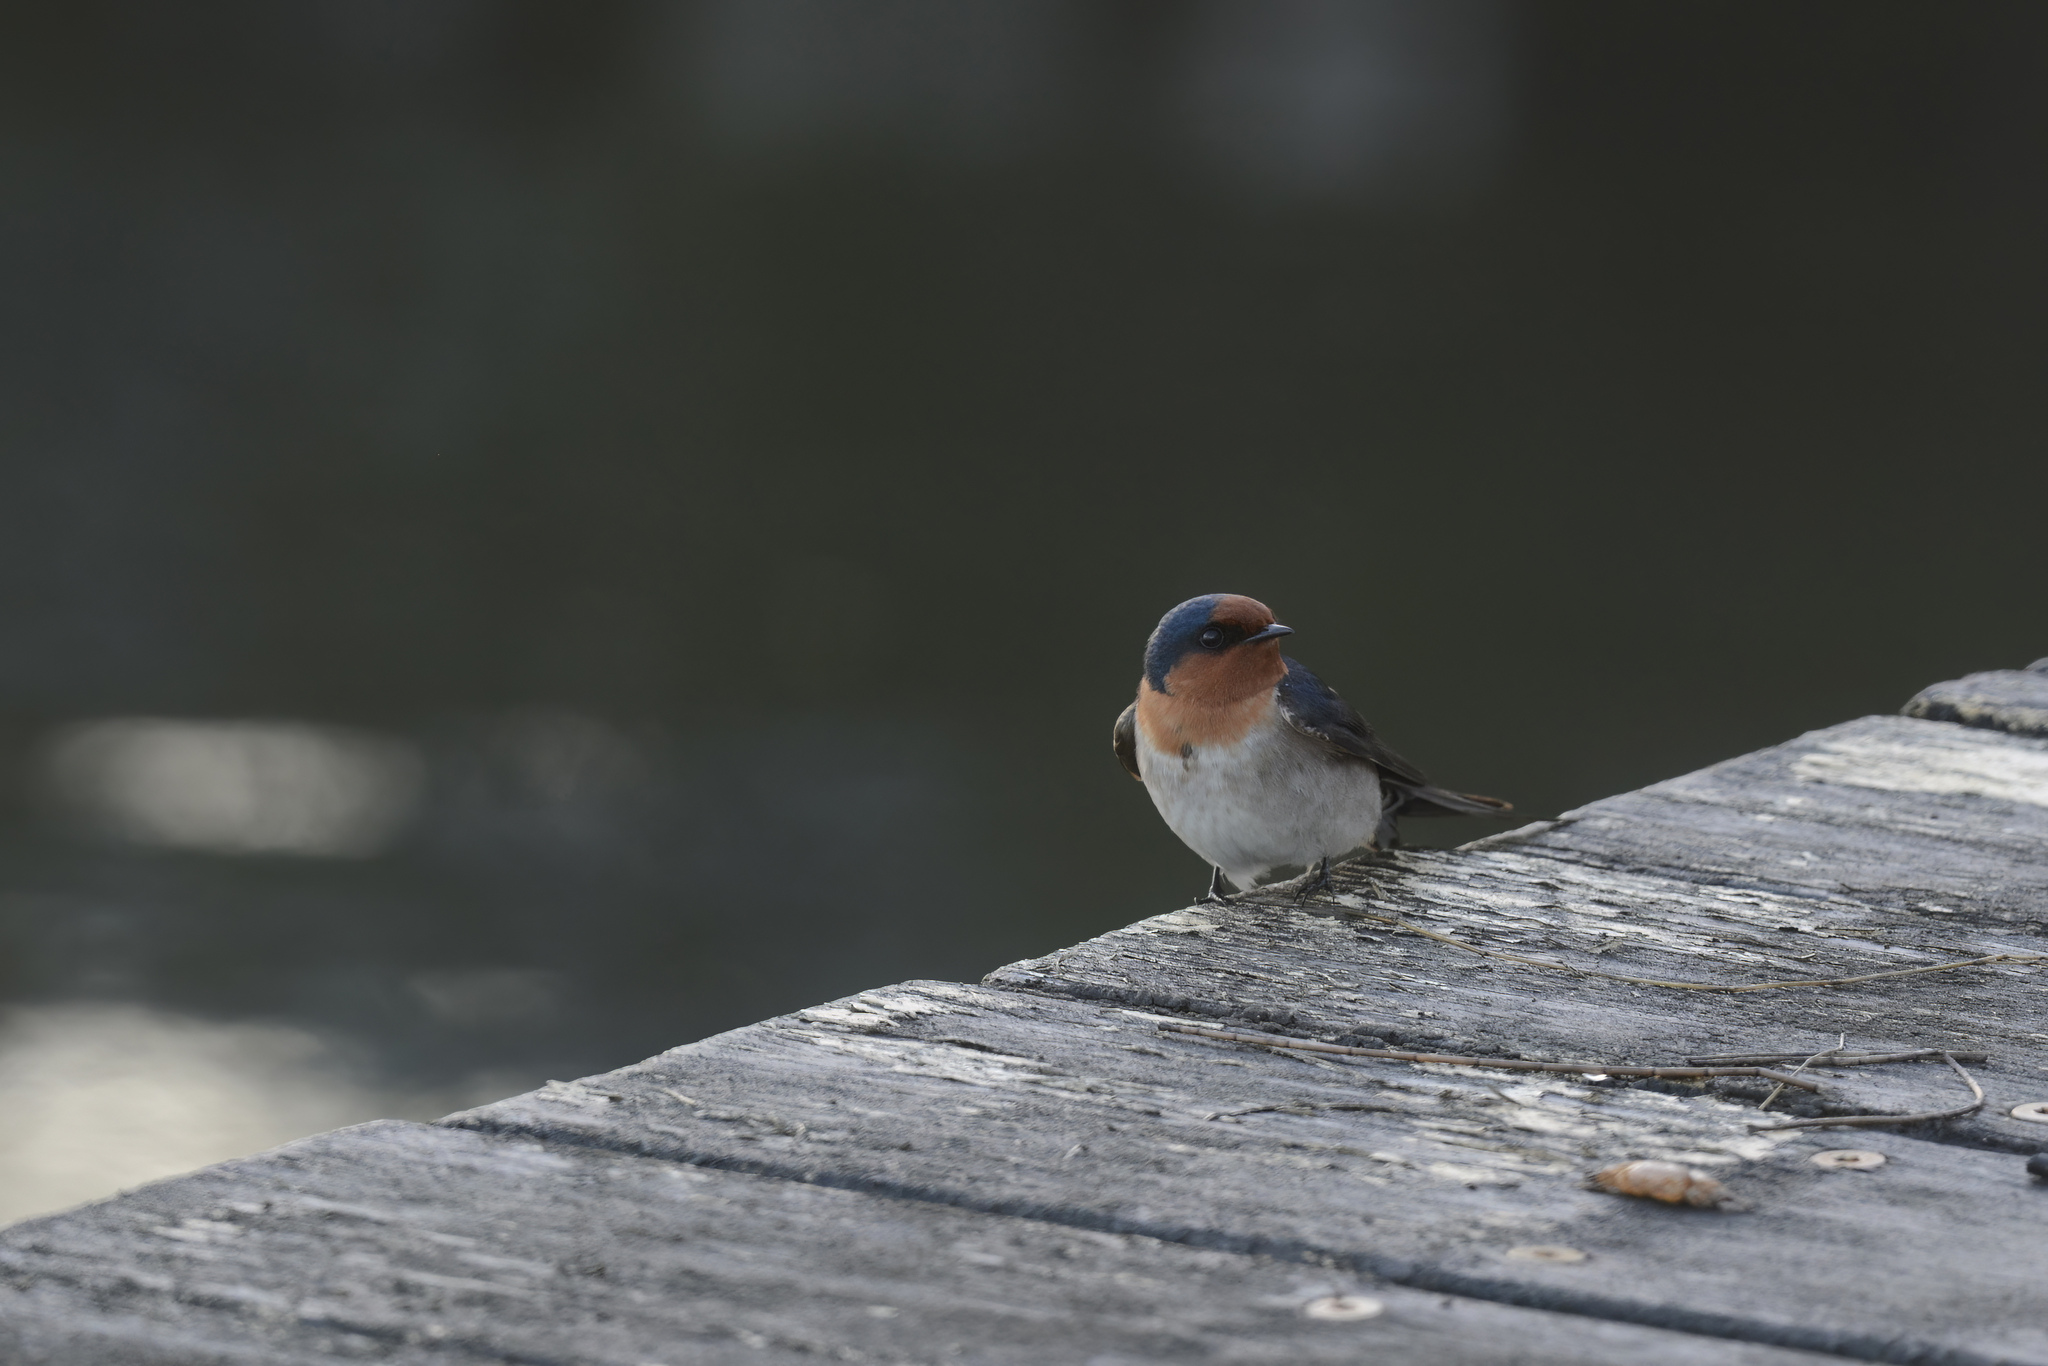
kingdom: Animalia
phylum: Chordata
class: Aves
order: Passeriformes
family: Hirundinidae
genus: Hirundo
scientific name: Hirundo neoxena
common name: Welcome swallow
